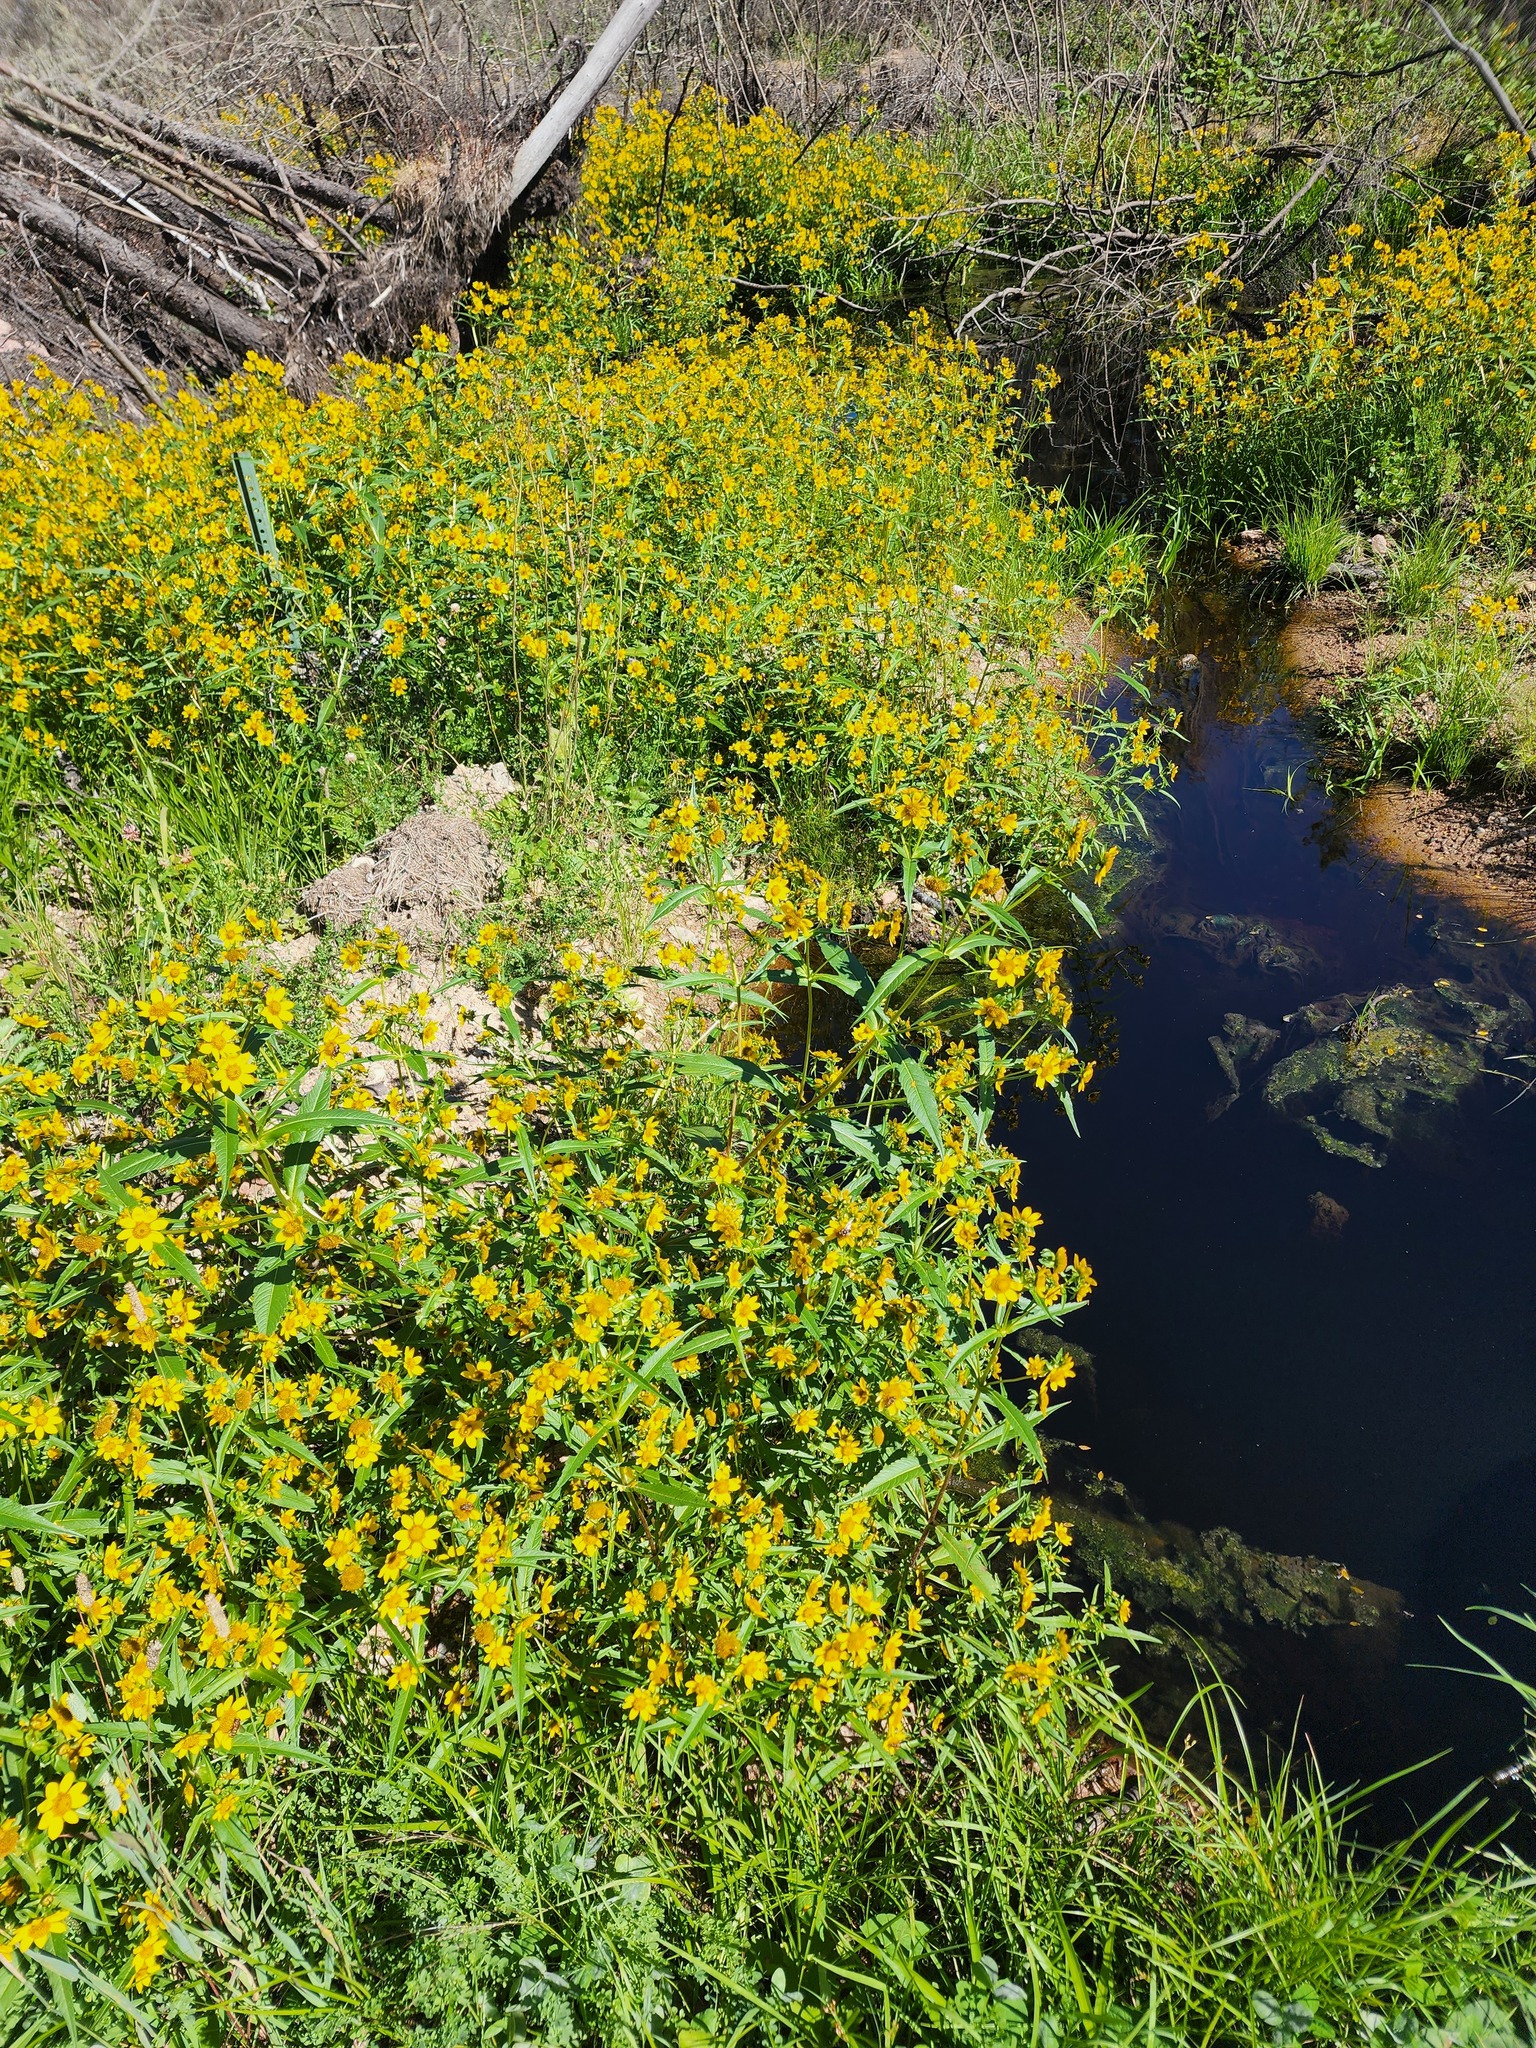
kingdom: Plantae
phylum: Tracheophyta
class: Magnoliopsida
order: Asterales
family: Asteraceae
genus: Bidens
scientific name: Bidens cernua
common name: Nodding bur-marigold
